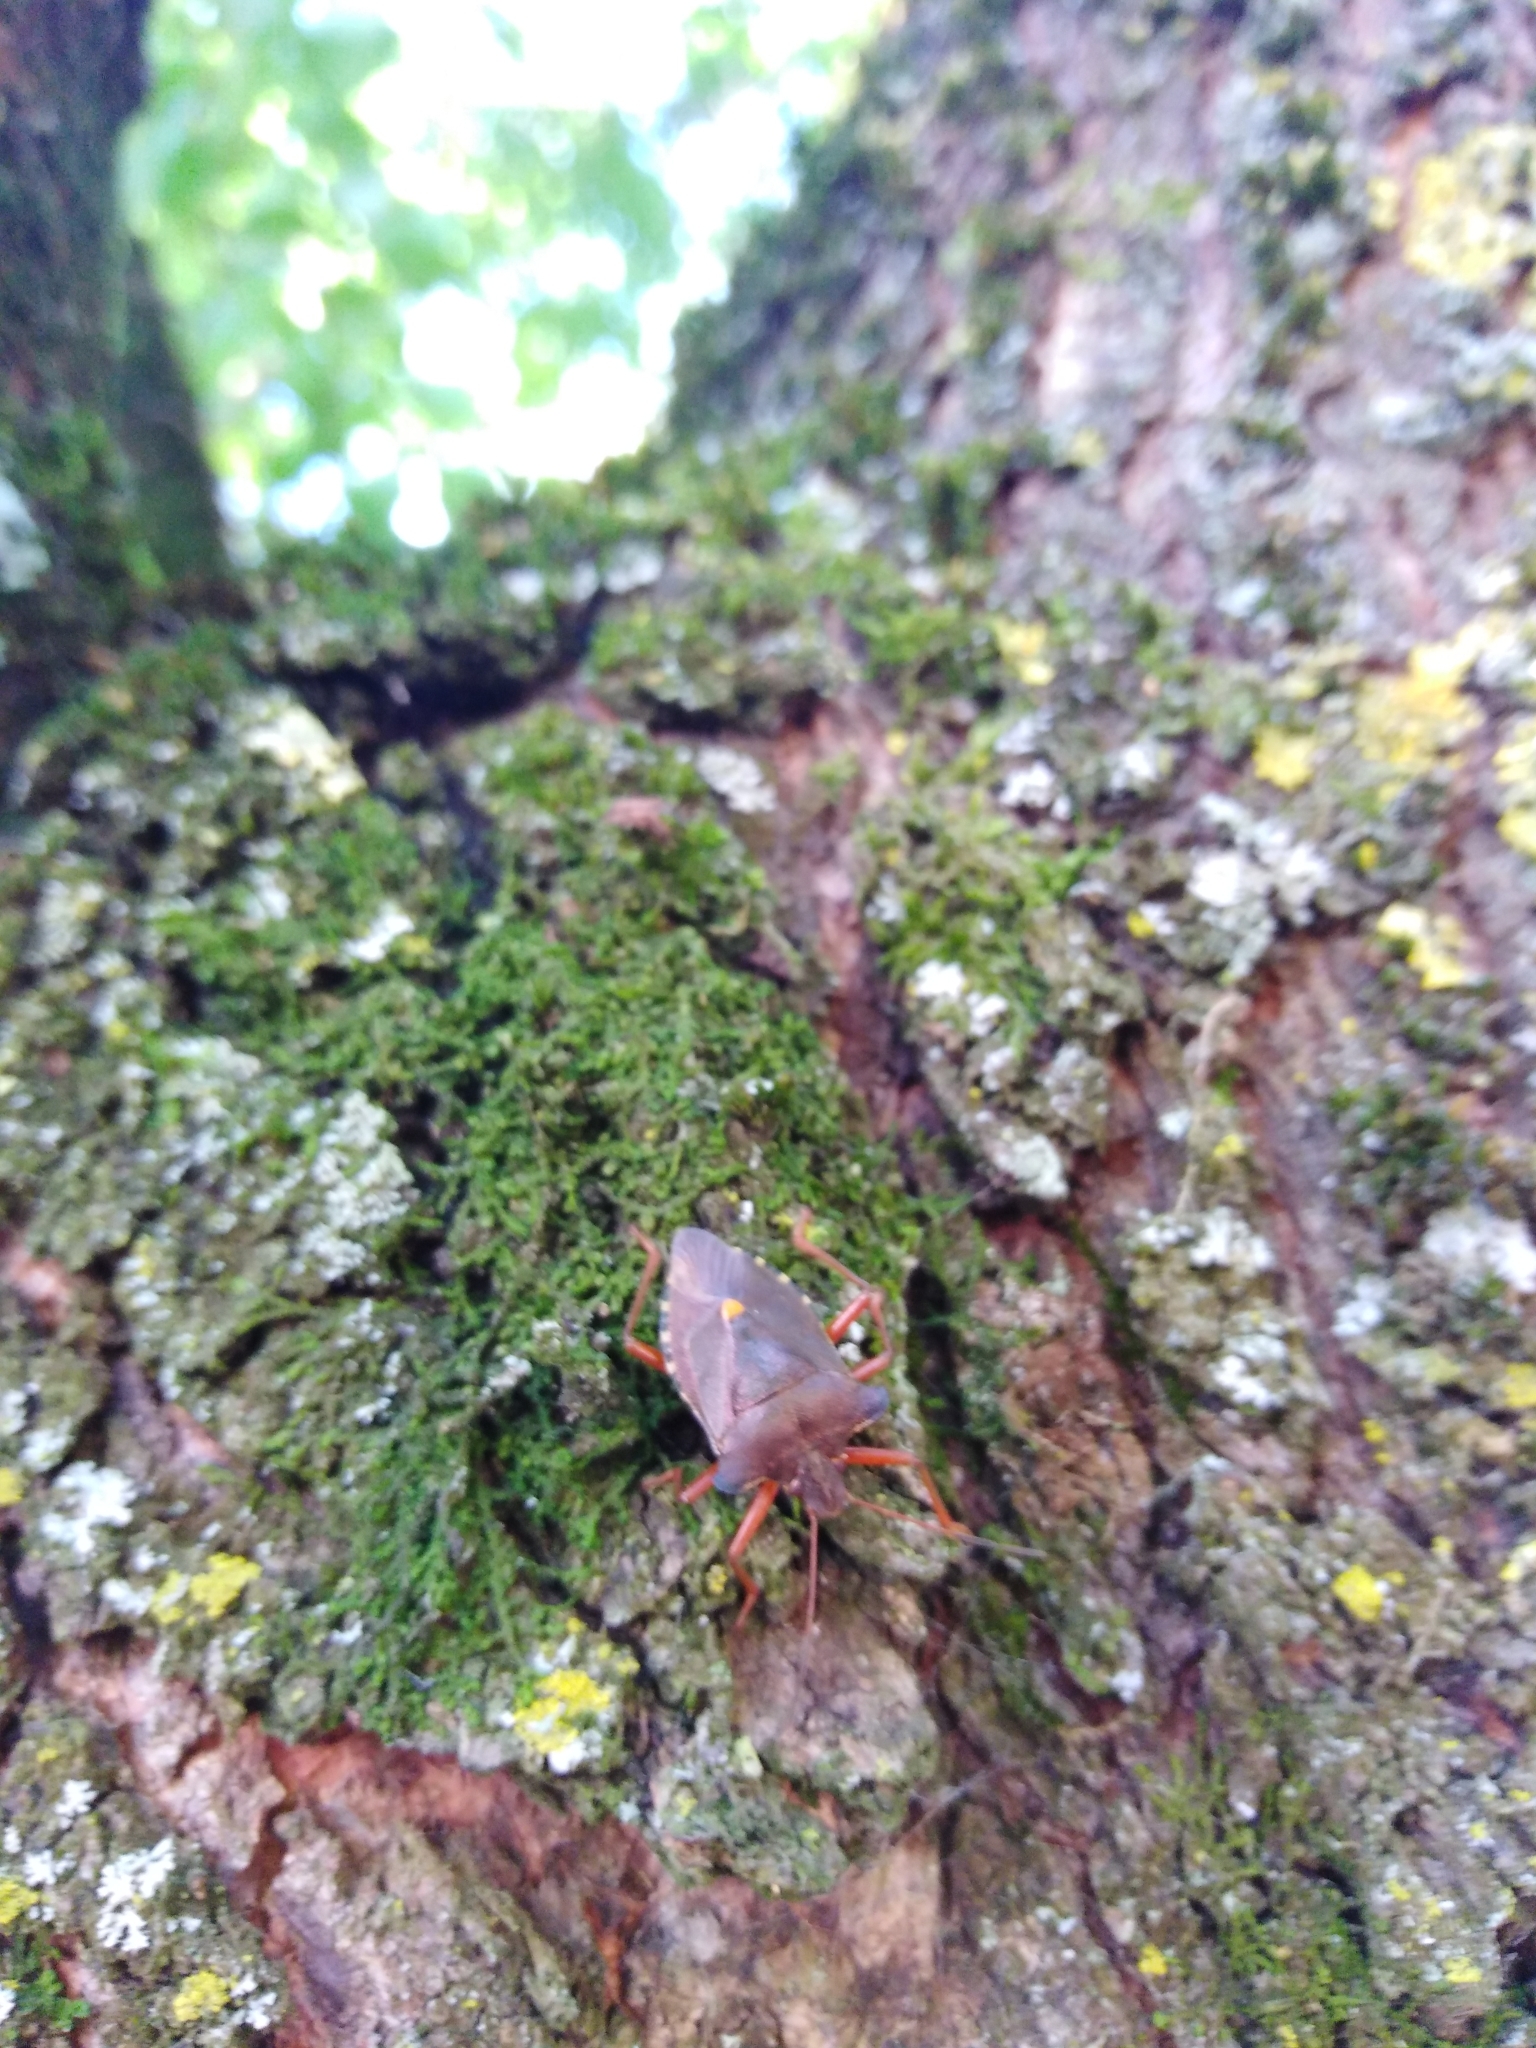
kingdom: Animalia
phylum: Arthropoda
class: Insecta
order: Hemiptera
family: Pentatomidae
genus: Pentatoma
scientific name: Pentatoma rufipes
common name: Forest bug
